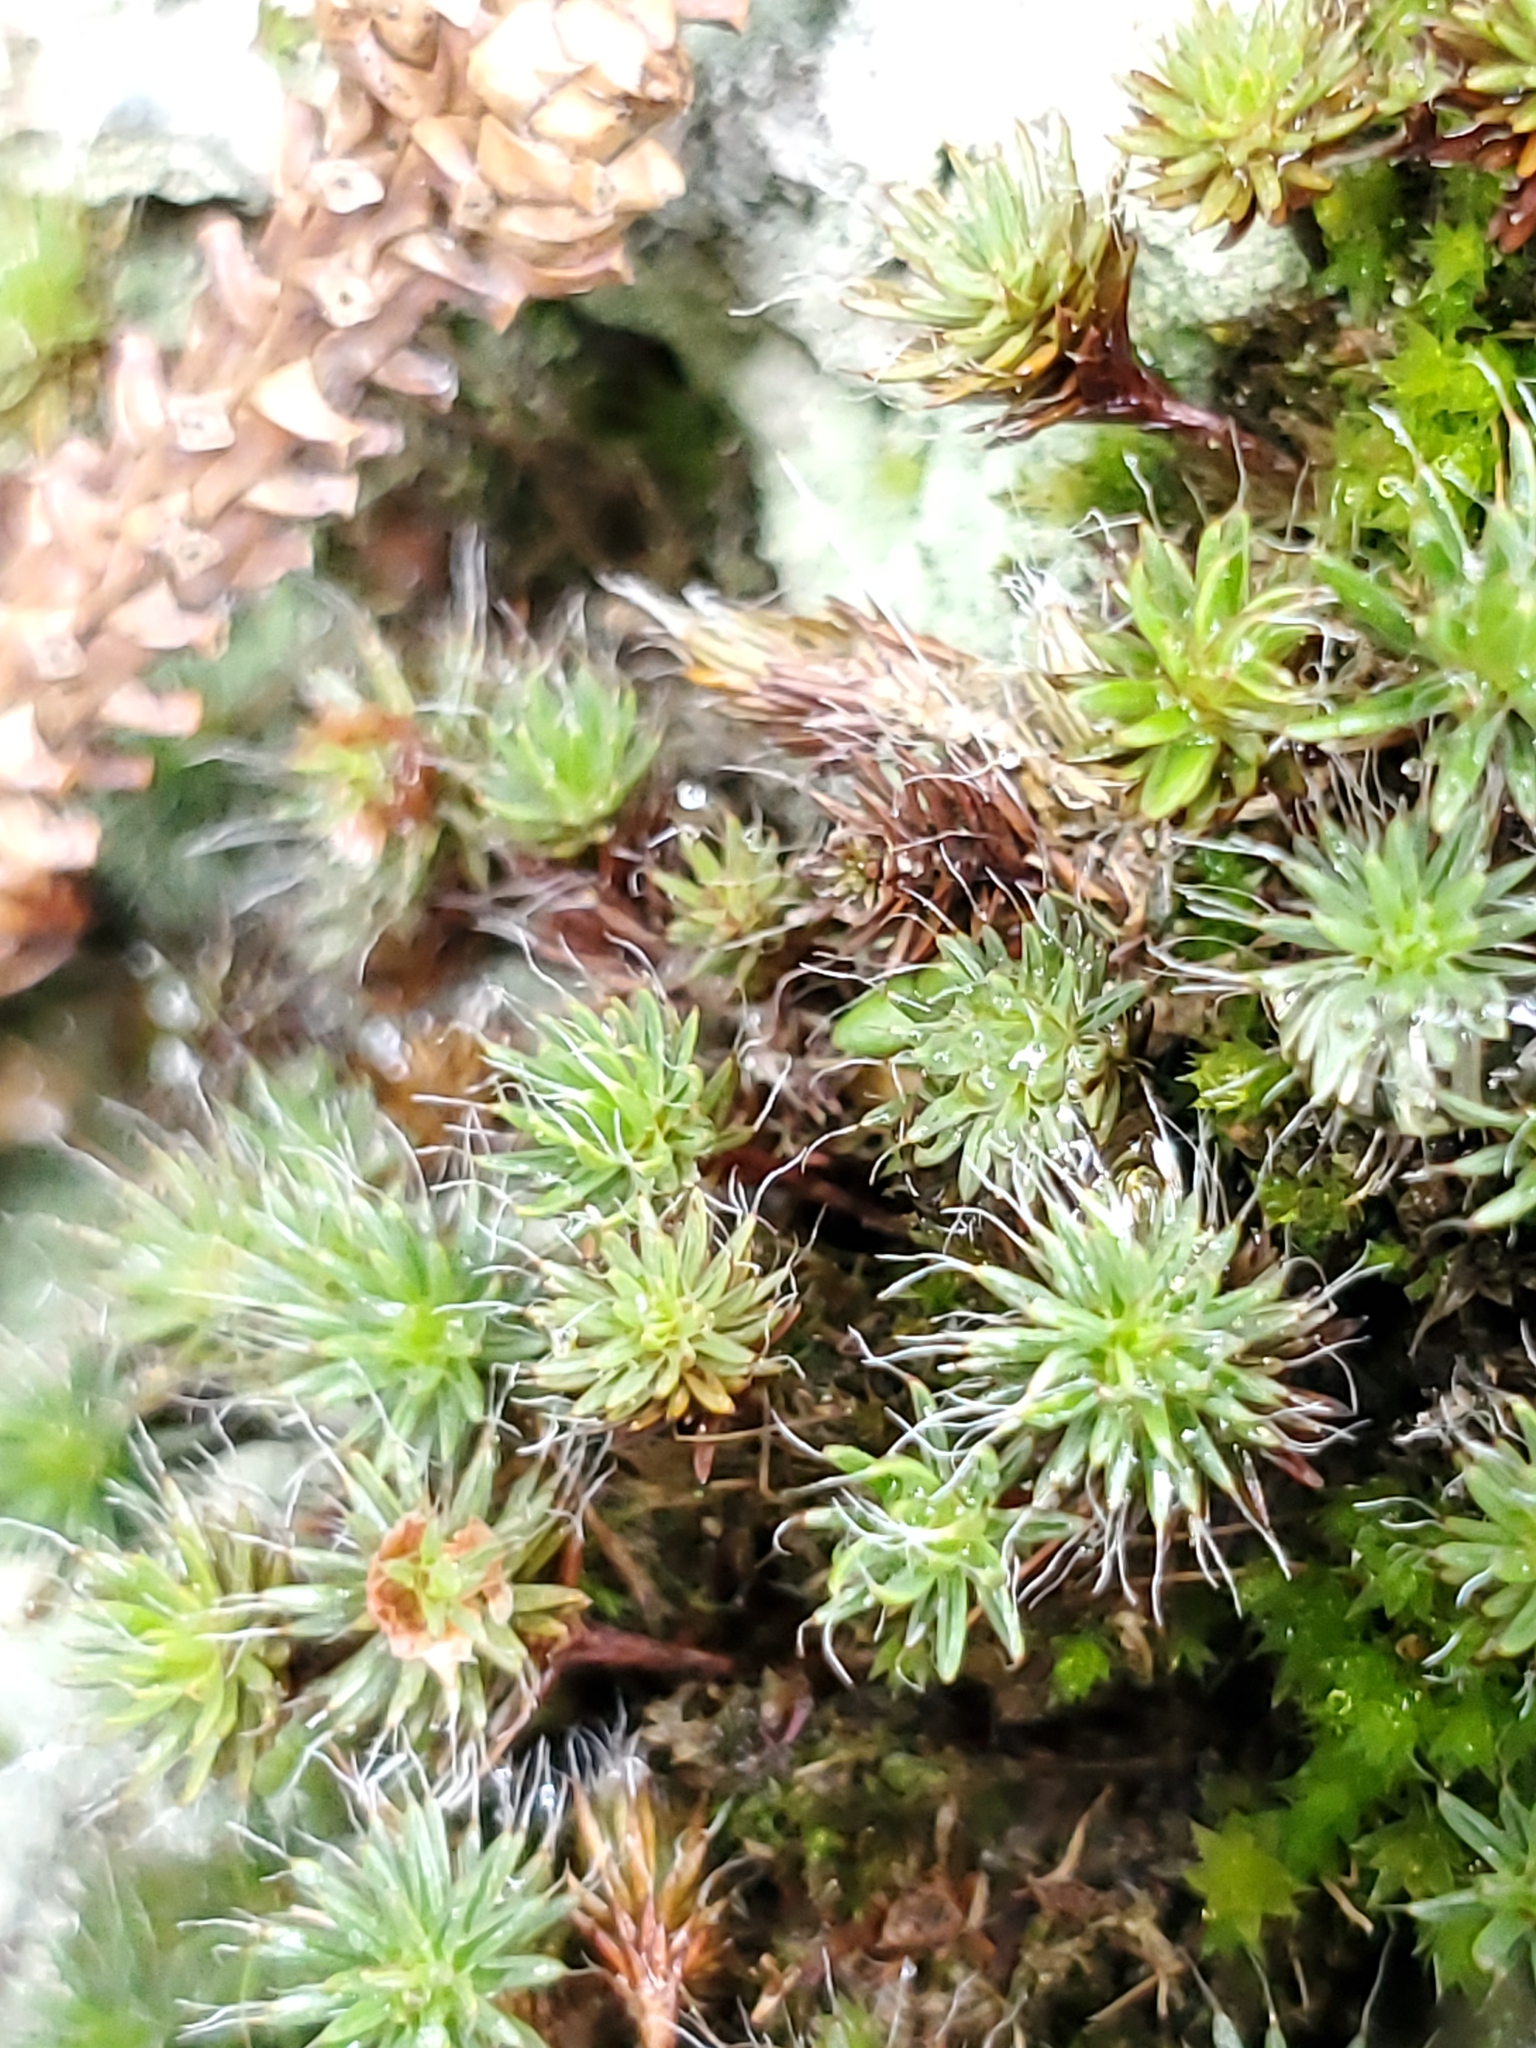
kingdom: Plantae
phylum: Bryophyta
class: Polytrichopsida
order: Polytrichales
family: Polytrichaceae
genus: Polytrichum
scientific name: Polytrichum piliferum
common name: Bristly haircap
